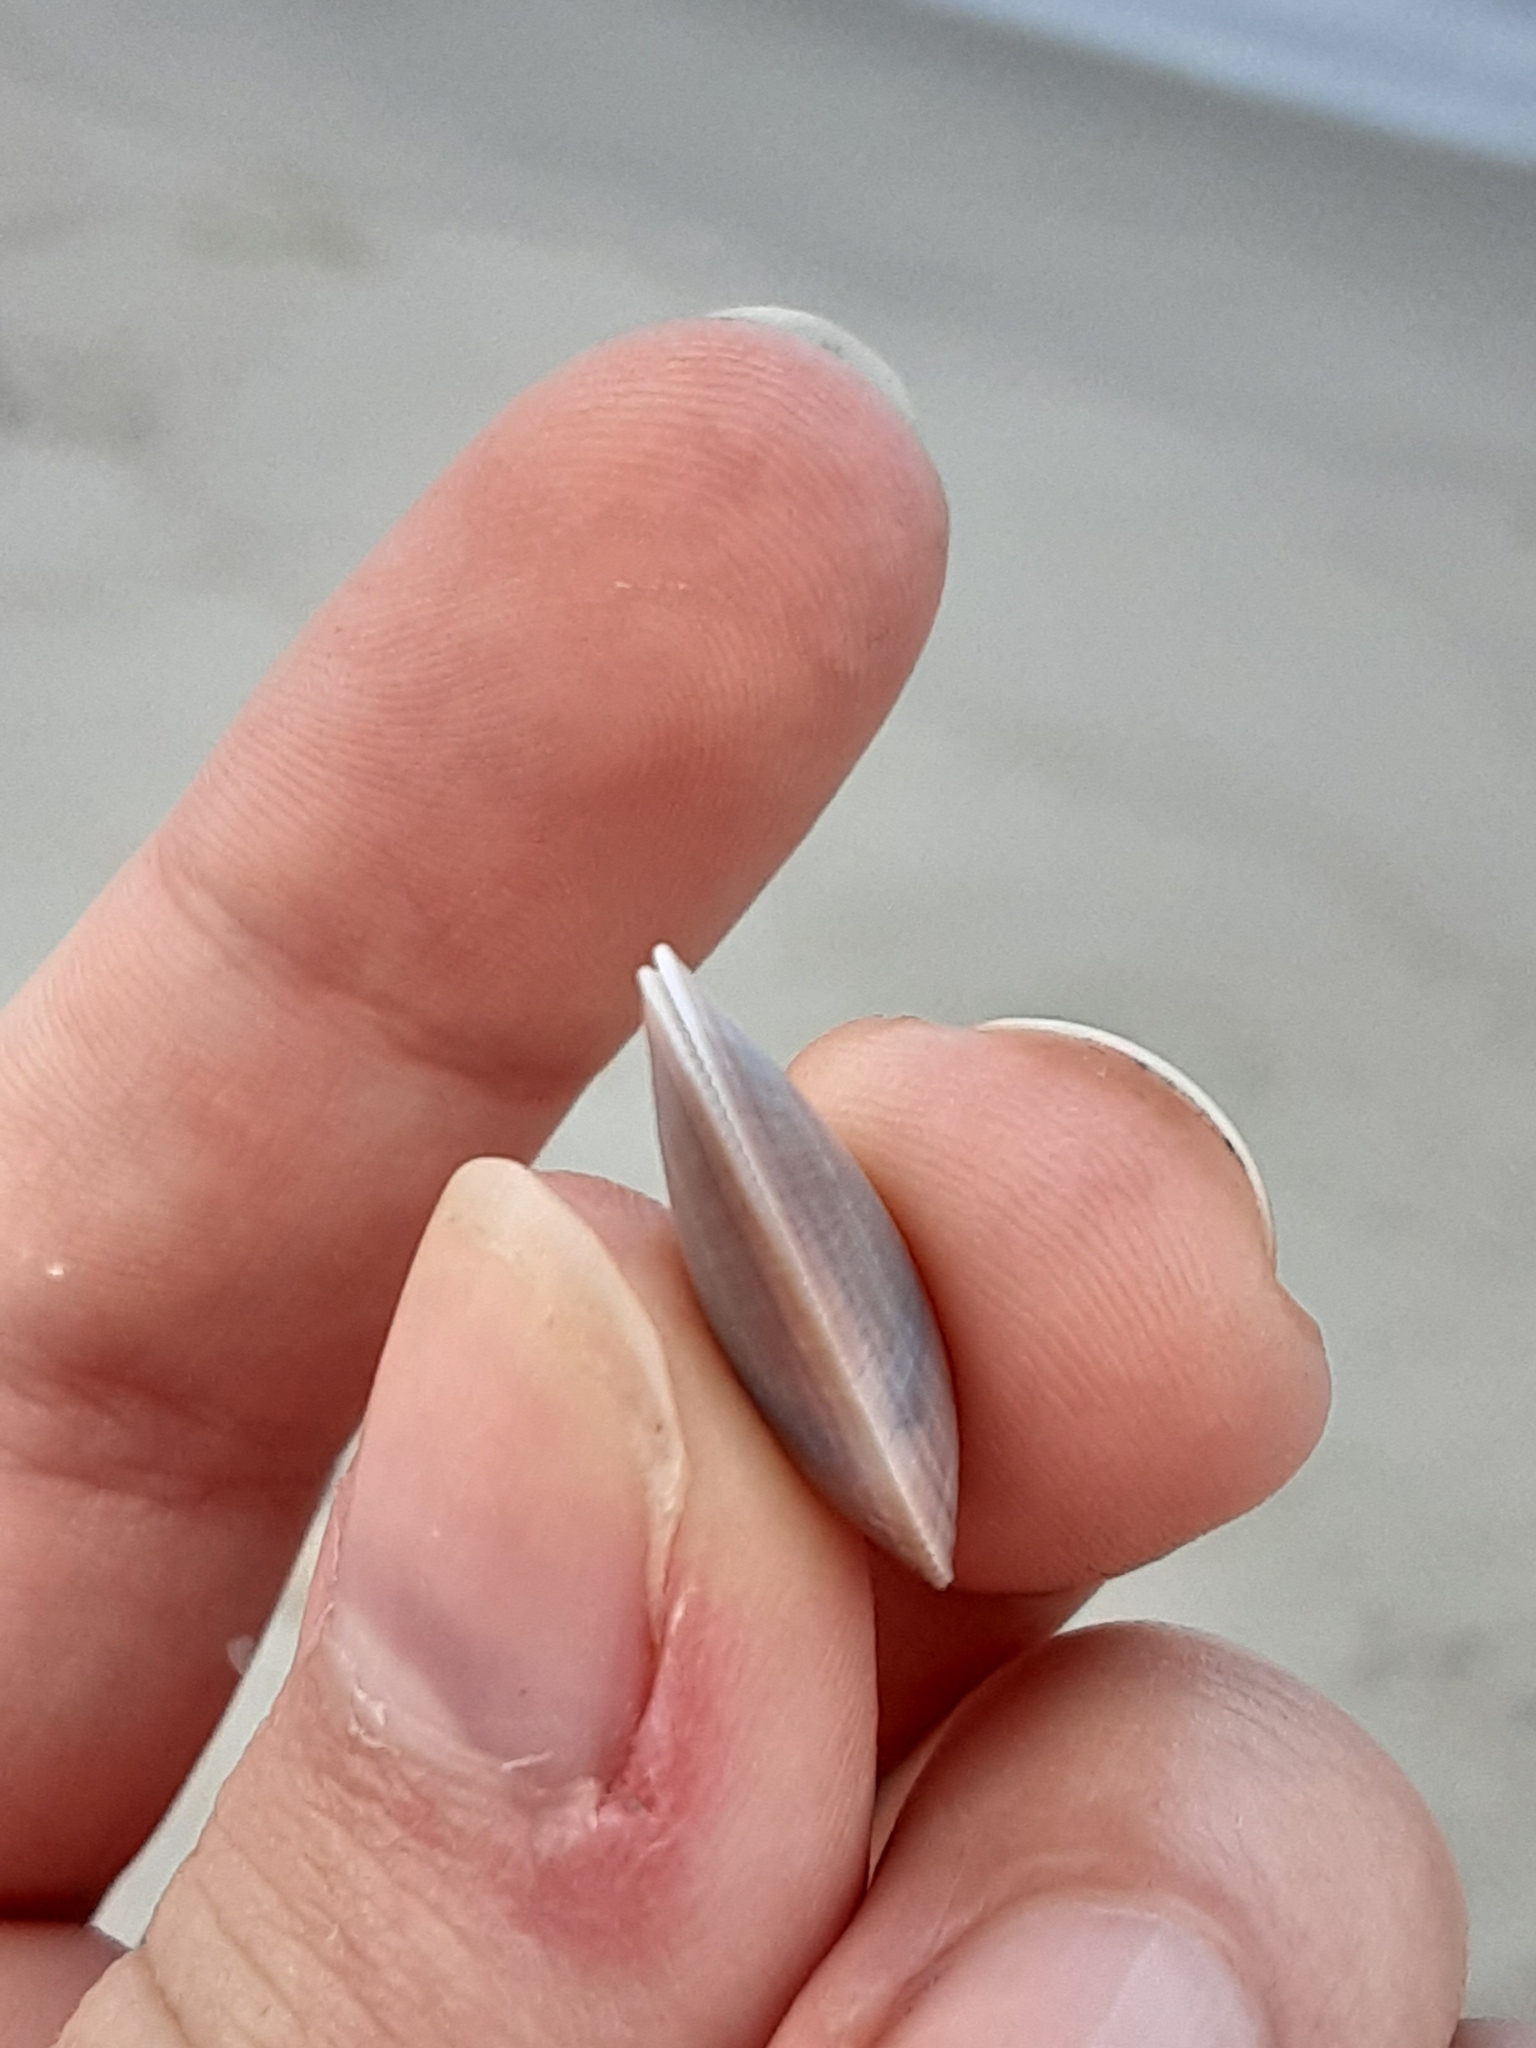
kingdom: Animalia
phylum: Mollusca
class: Bivalvia
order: Cardiida
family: Donacidae
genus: Donax
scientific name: Donax fossor
